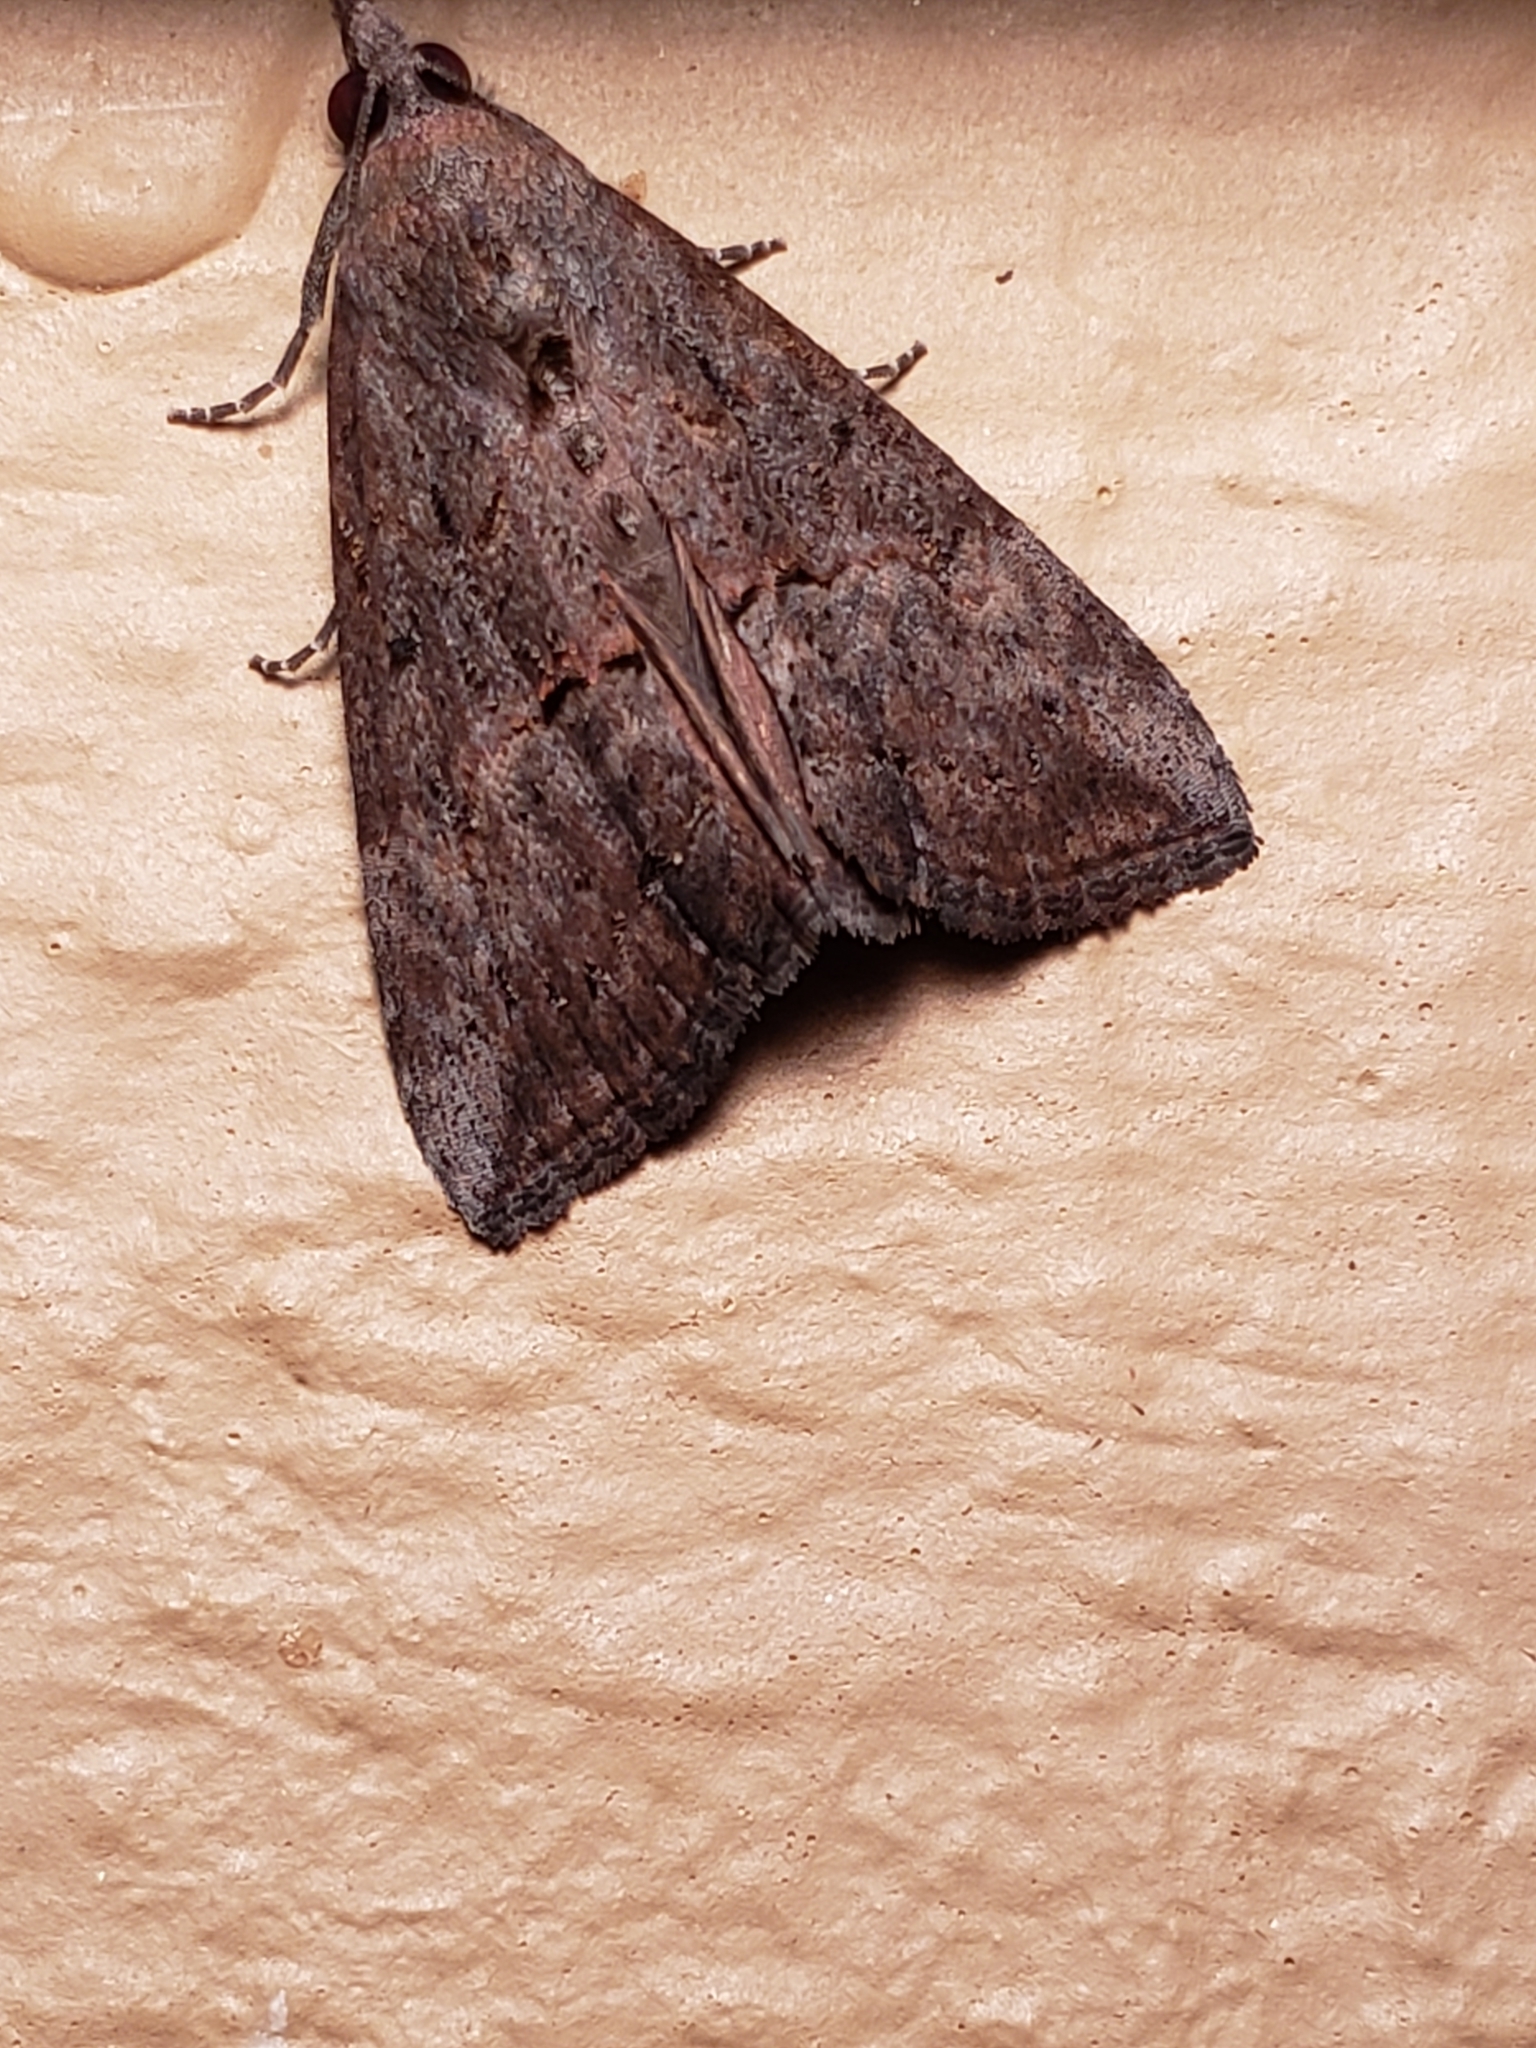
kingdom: Animalia
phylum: Arthropoda
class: Insecta
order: Lepidoptera
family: Erebidae
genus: Hypena
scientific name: Hypena scabra
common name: Green cloverworm
